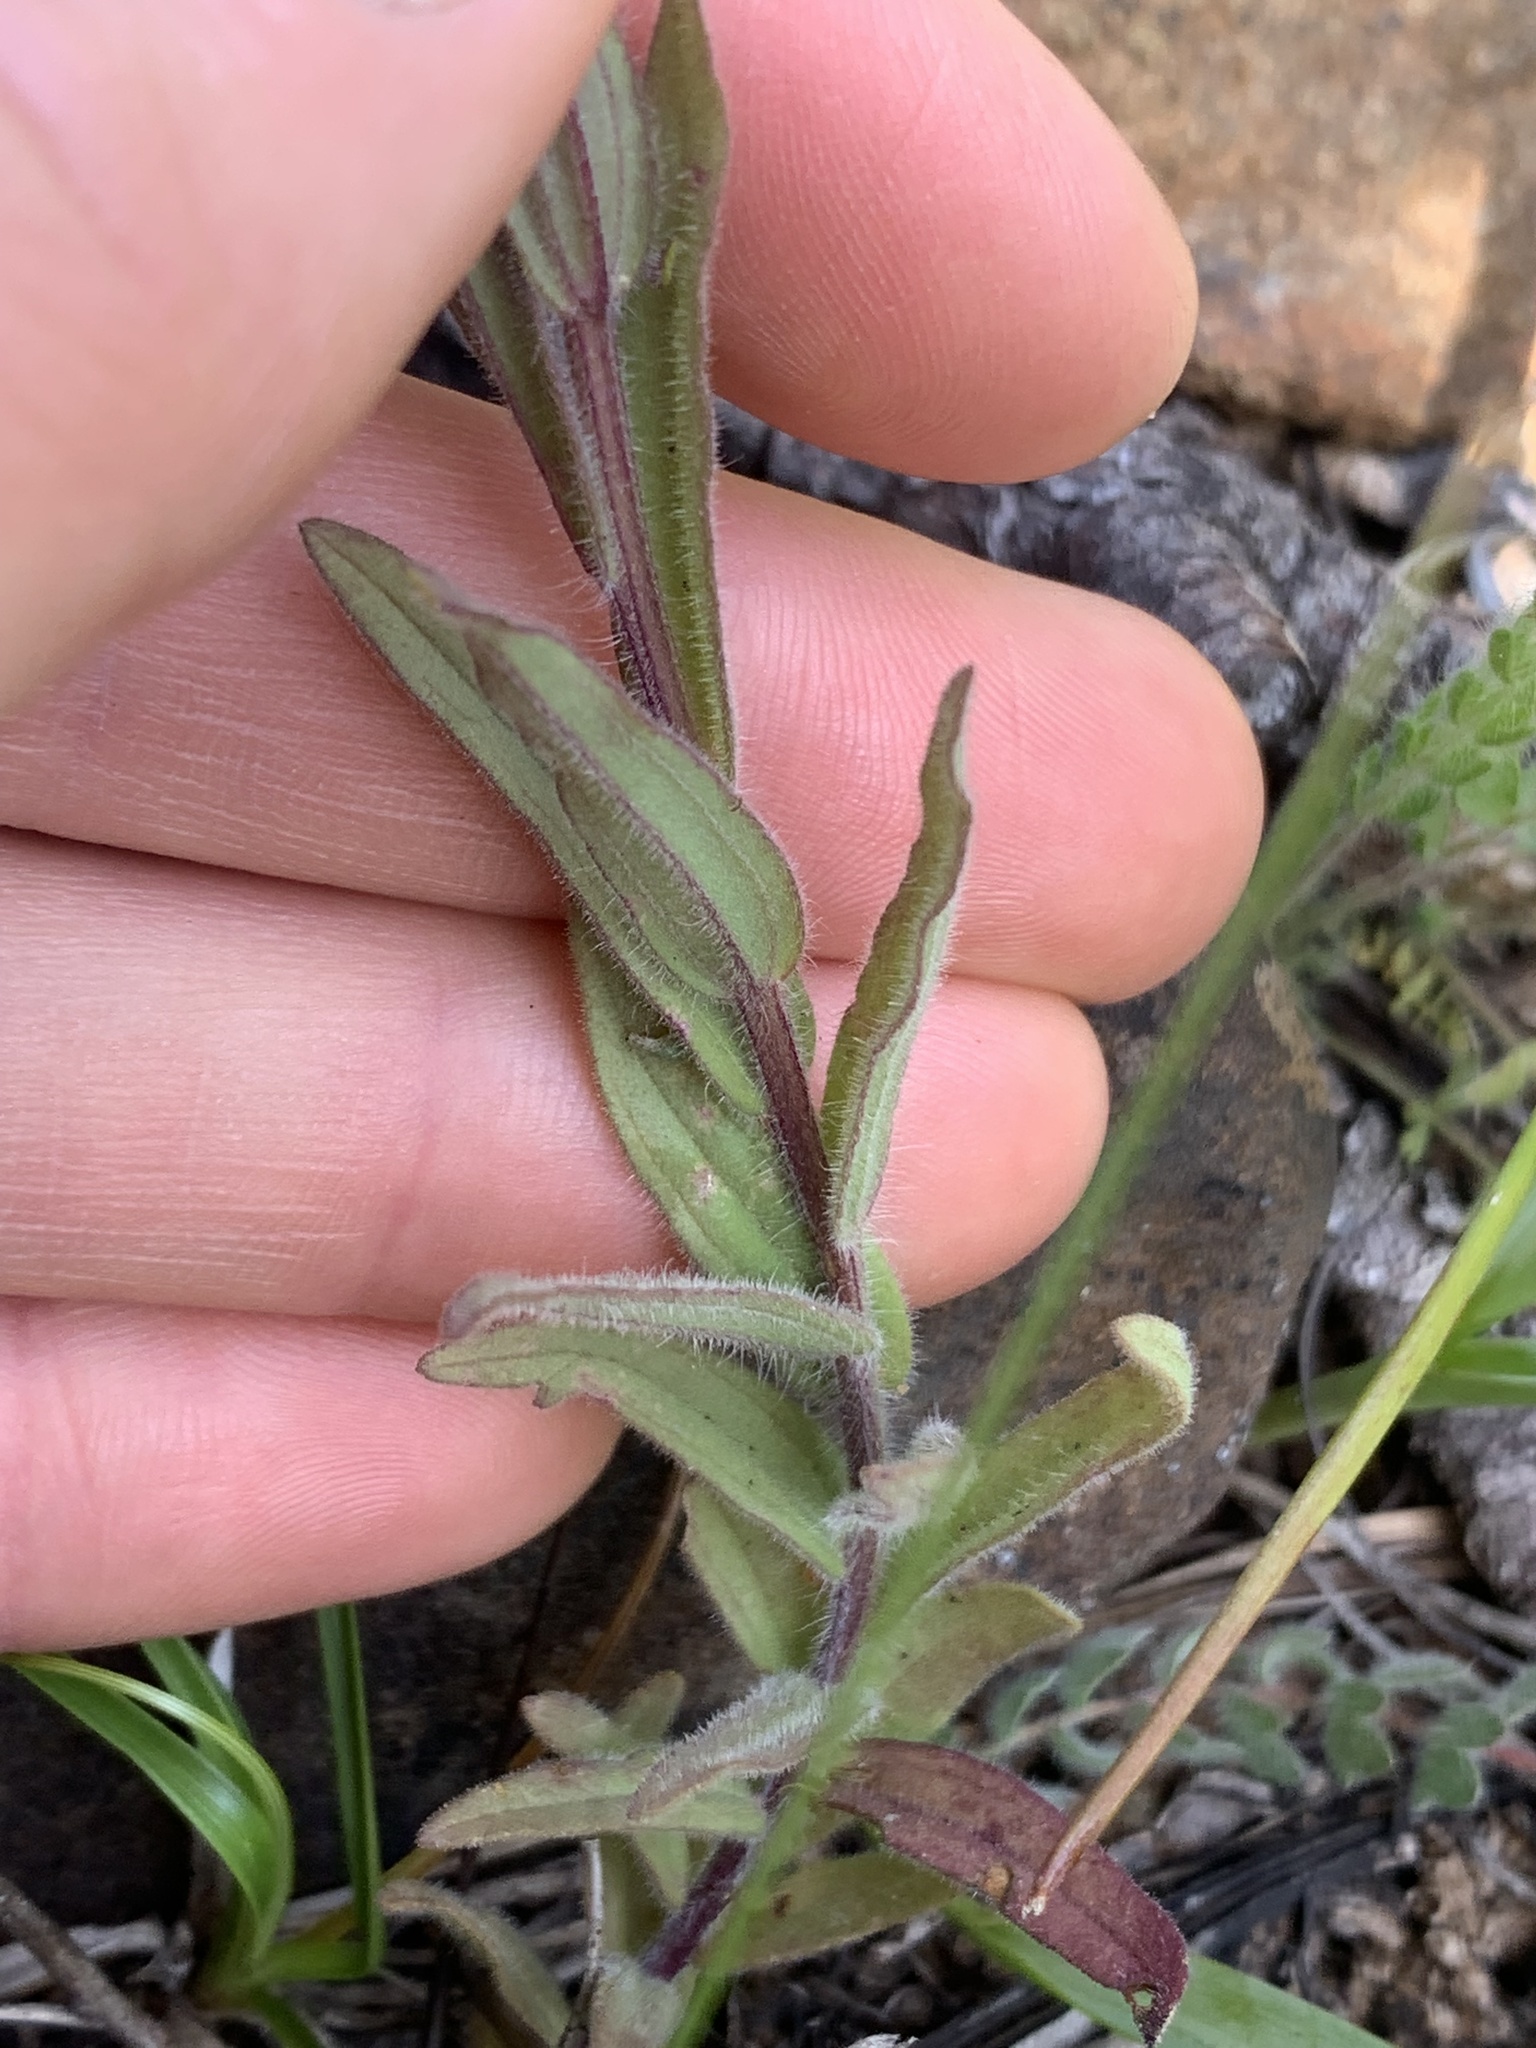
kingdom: Plantae
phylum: Tracheophyta
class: Magnoliopsida
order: Lamiales
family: Orobanchaceae
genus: Castilleja
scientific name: Castilleja brevilobata
